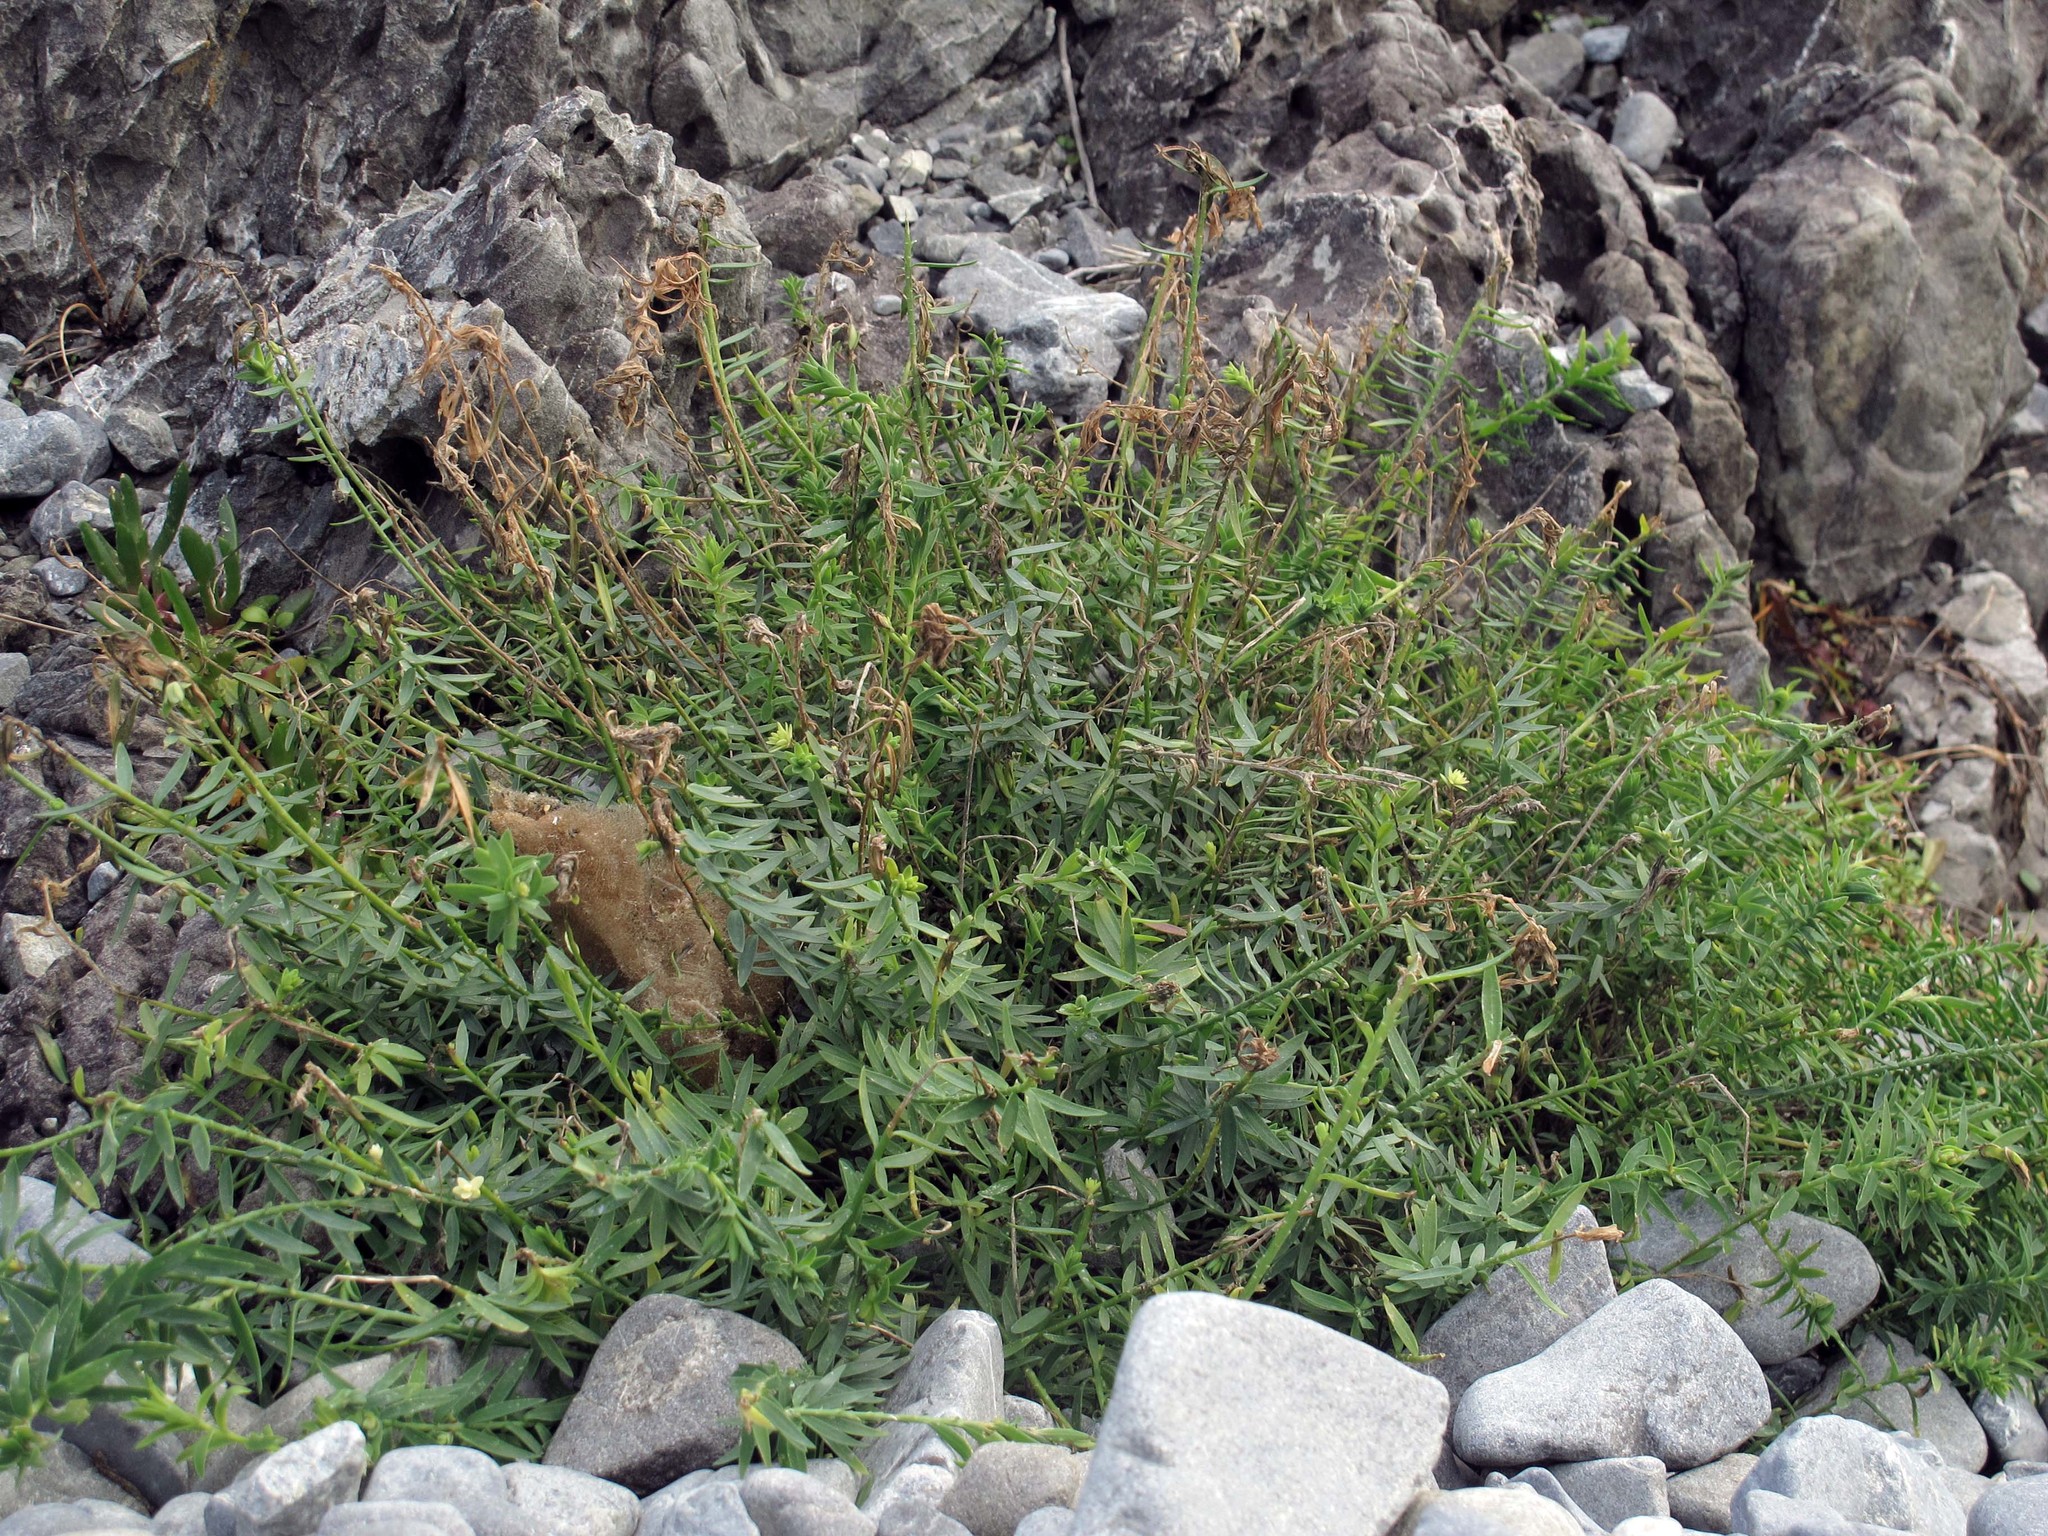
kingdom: Plantae
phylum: Tracheophyta
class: Magnoliopsida
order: Malpighiales
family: Linaceae
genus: Linum
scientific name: Linum monogynum
